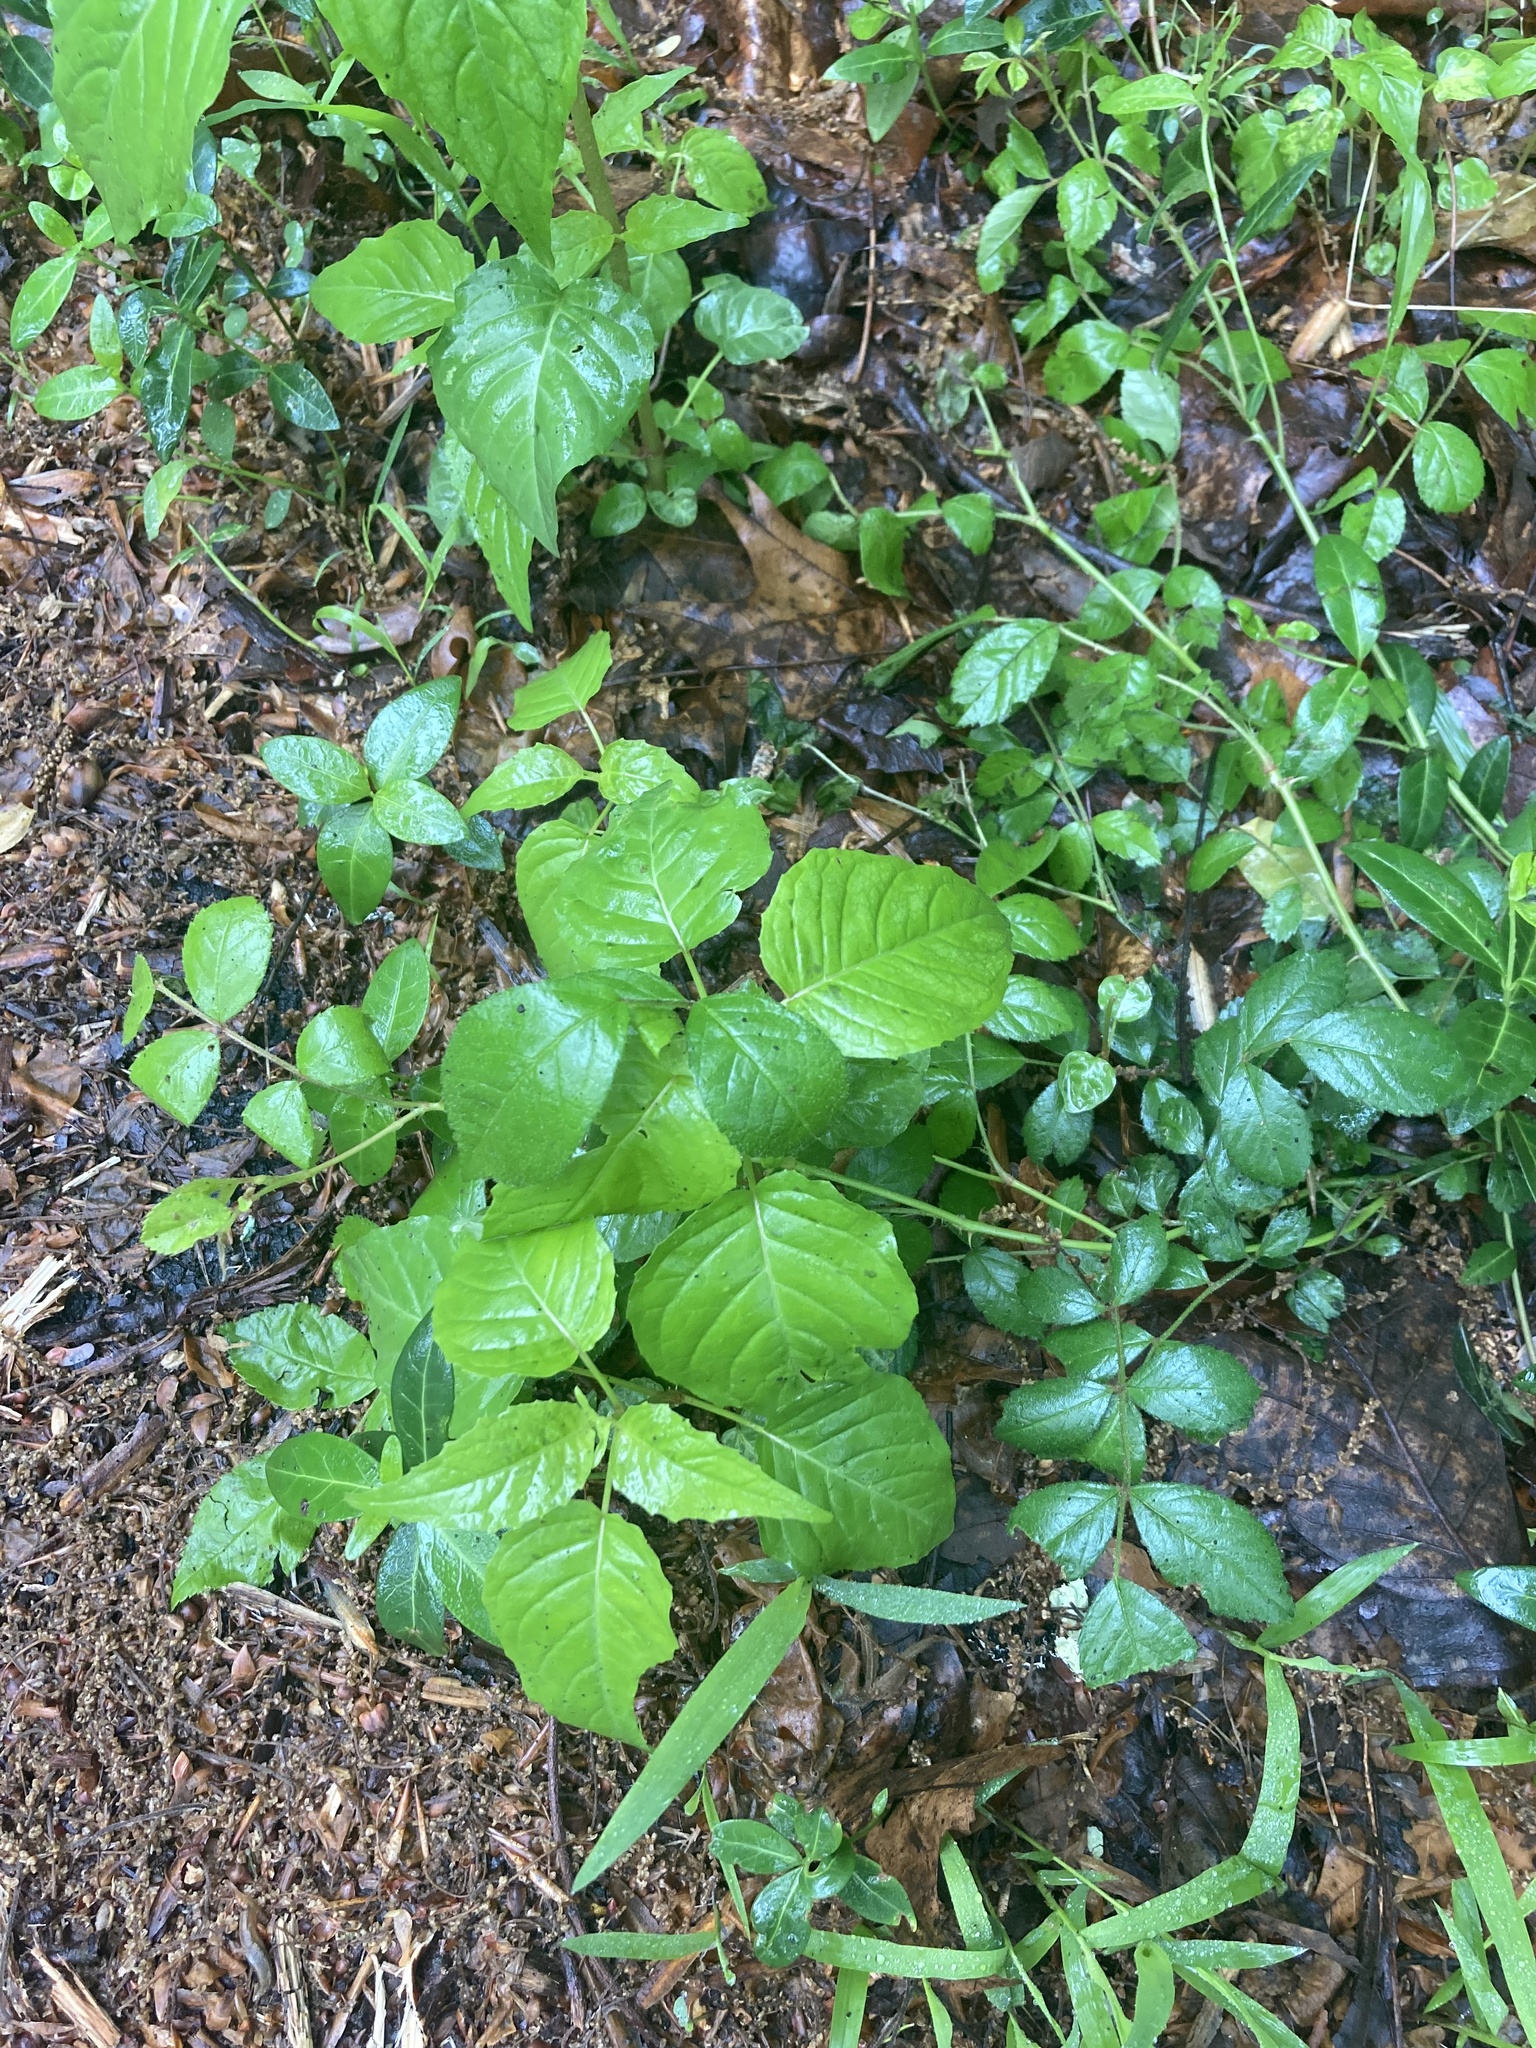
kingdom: Plantae
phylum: Tracheophyta
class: Magnoliopsida
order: Sapindales
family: Anacardiaceae
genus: Toxicodendron
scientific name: Toxicodendron radicans
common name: Poison ivy
